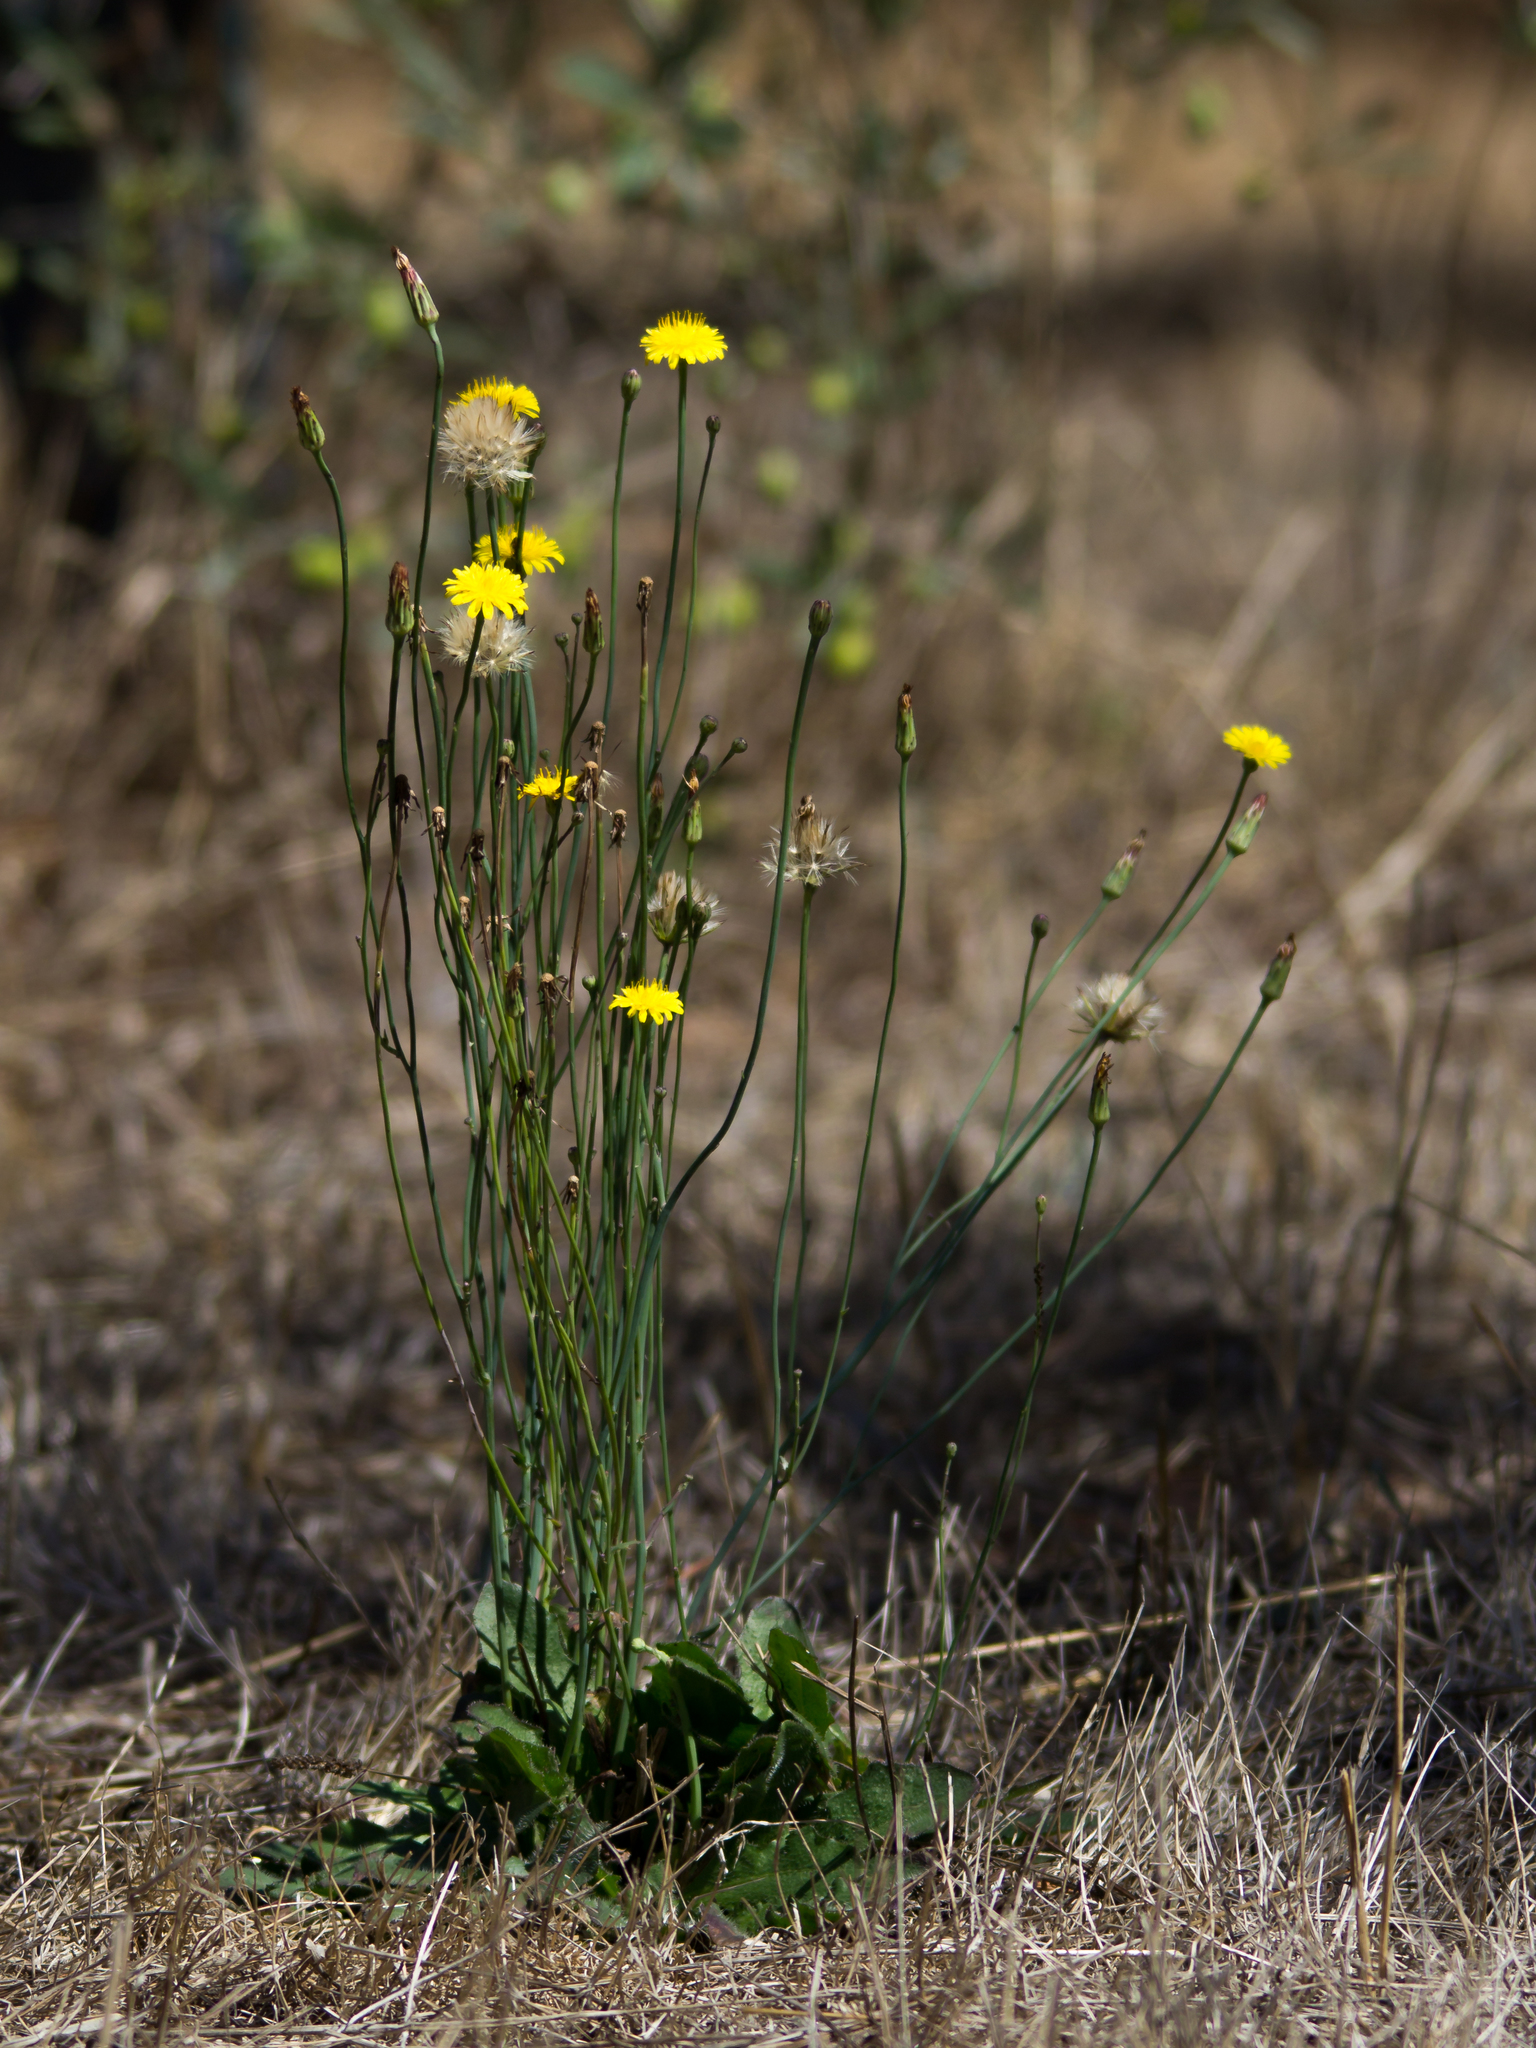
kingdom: Plantae
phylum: Tracheophyta
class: Magnoliopsida
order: Asterales
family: Asteraceae
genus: Hypochaeris
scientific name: Hypochaeris radicata
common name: Flatweed
